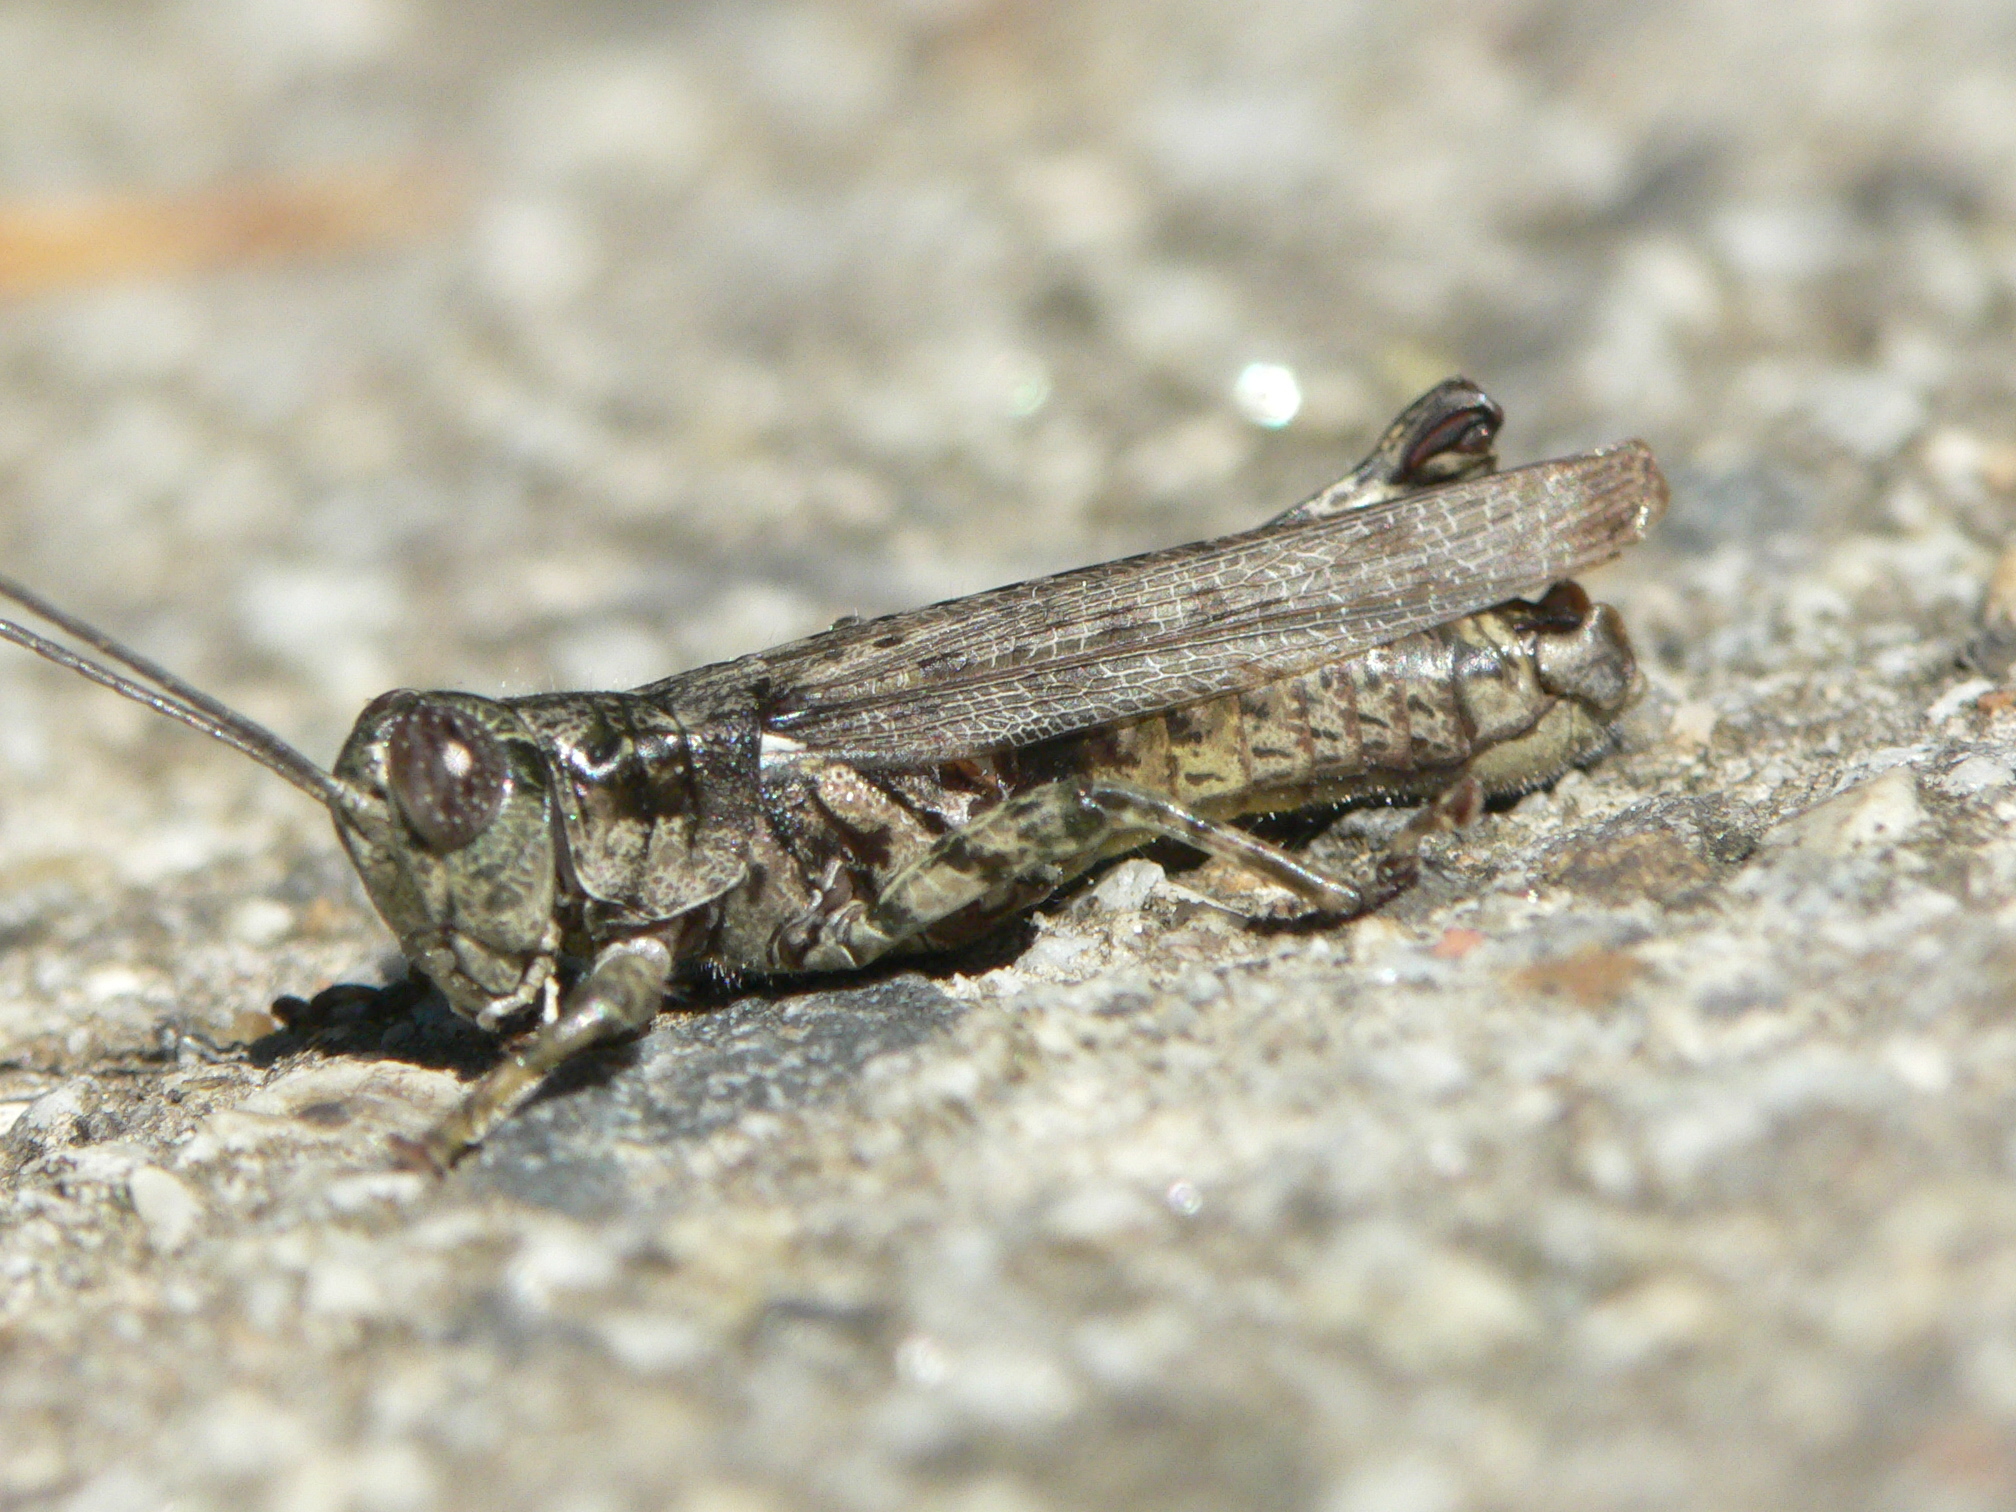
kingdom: Animalia
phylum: Arthropoda
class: Insecta
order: Orthoptera
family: Acrididae
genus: Melanoplus
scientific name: Melanoplus punctulatus
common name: Pine-tree spur-throat grasshopper
